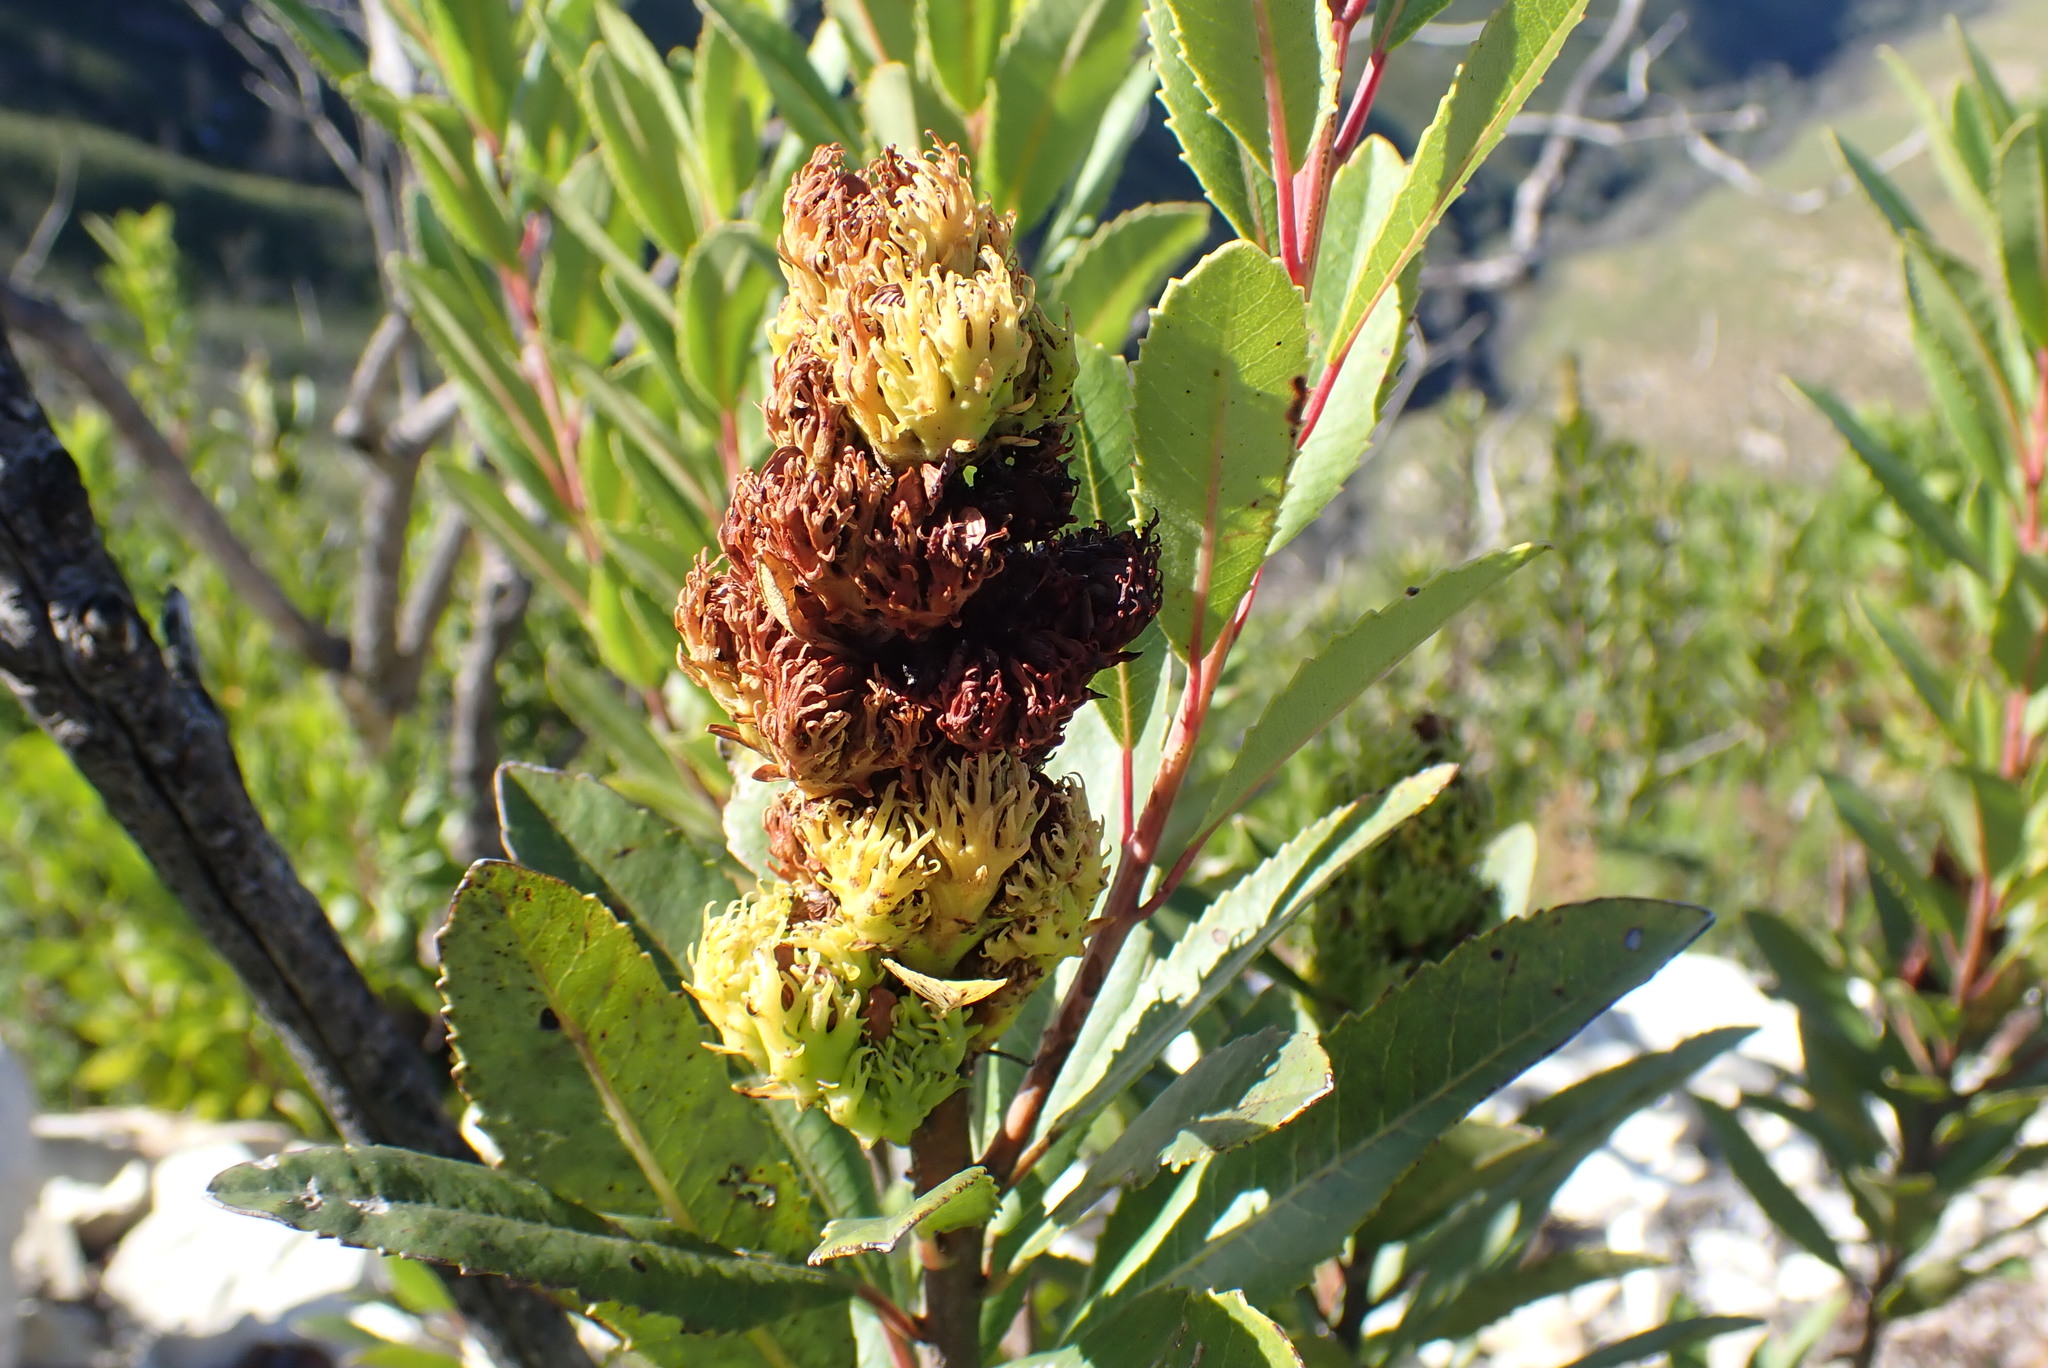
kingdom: Plantae
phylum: Tracheophyta
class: Magnoliopsida
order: Sapindales
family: Anacardiaceae
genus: Laurophyllus
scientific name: Laurophyllus capensis
